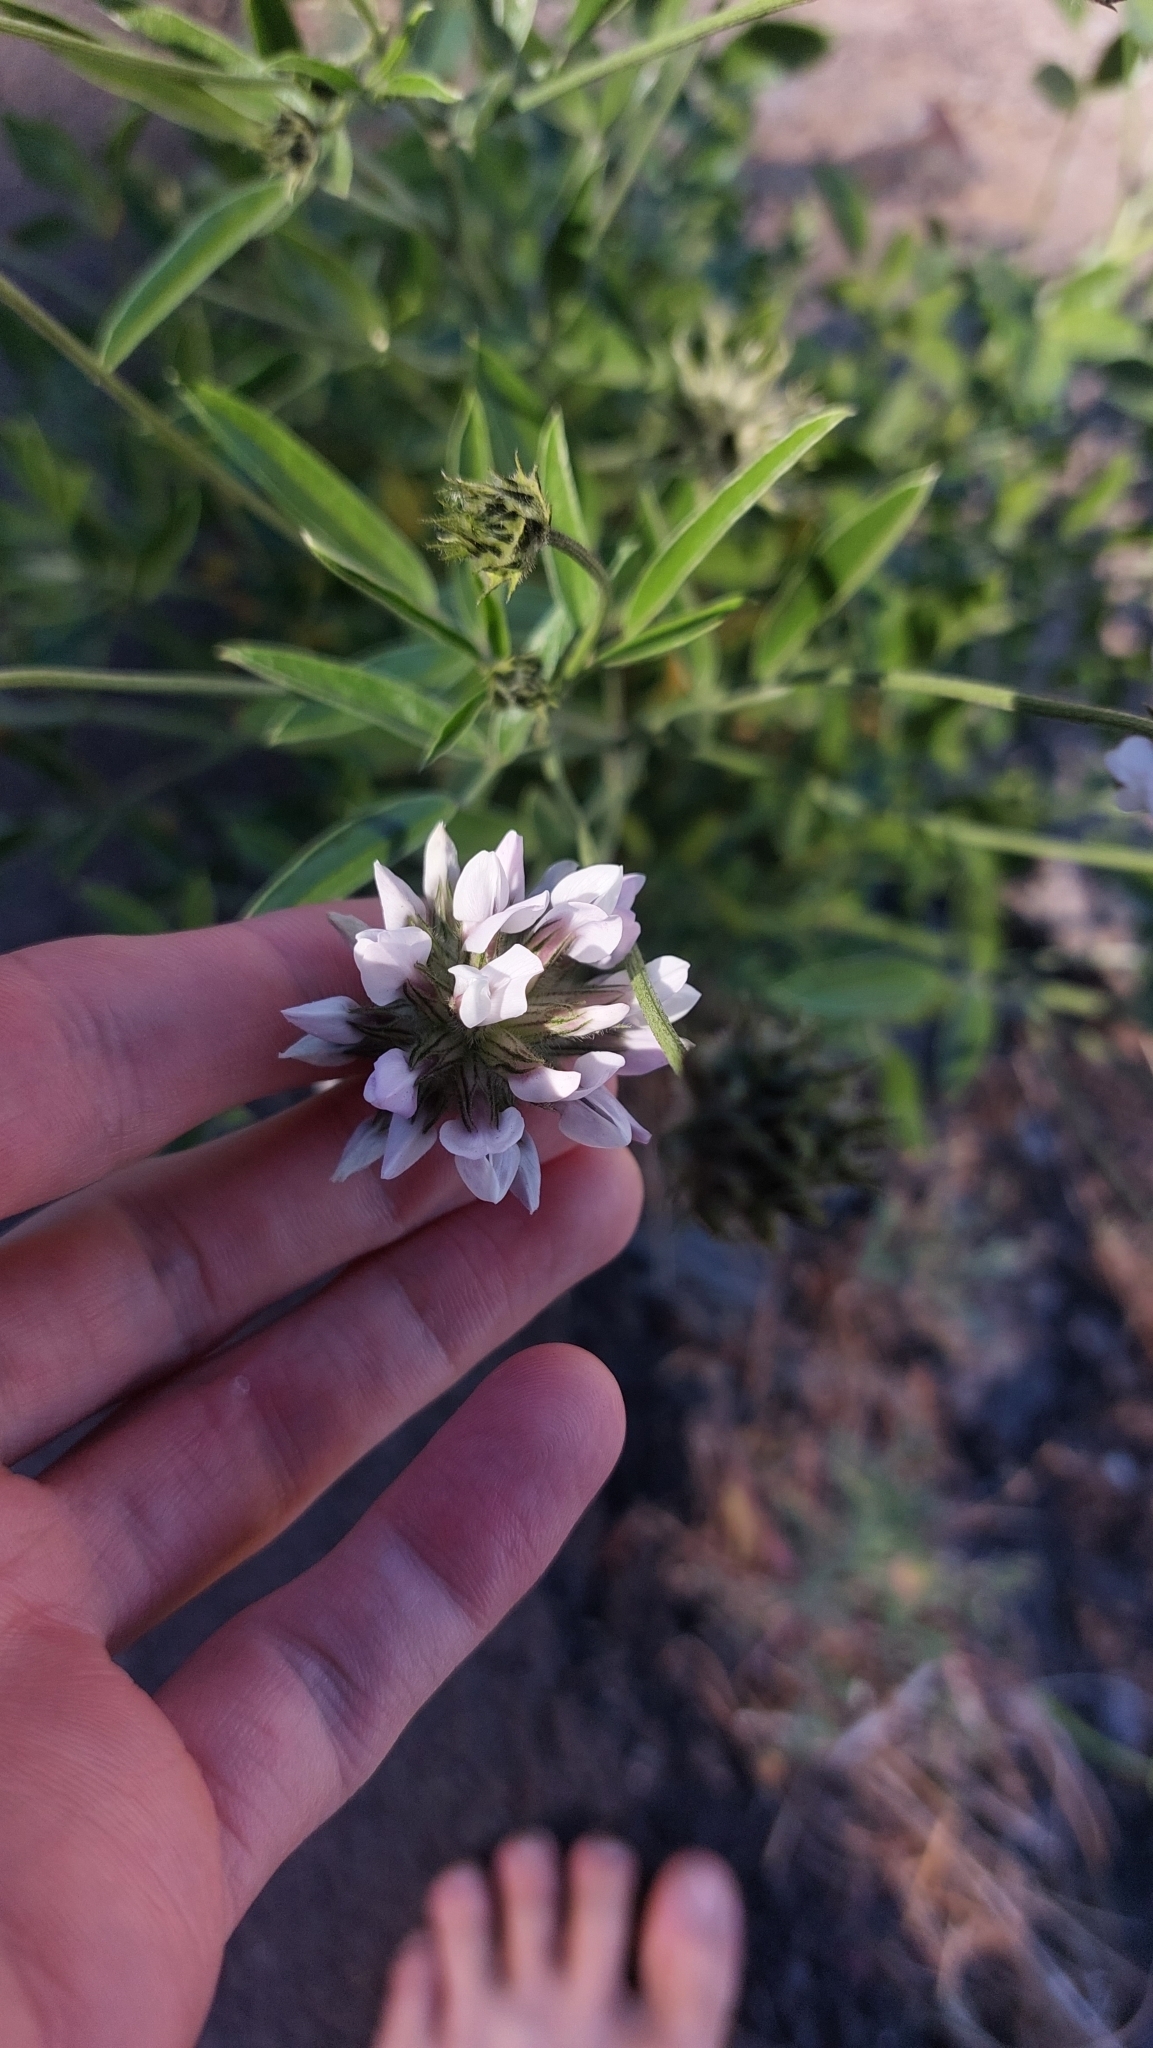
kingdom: Plantae
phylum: Tracheophyta
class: Magnoliopsida
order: Fabales
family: Fabaceae
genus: Bituminaria
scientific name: Bituminaria bituminosa
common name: Arabian pea
